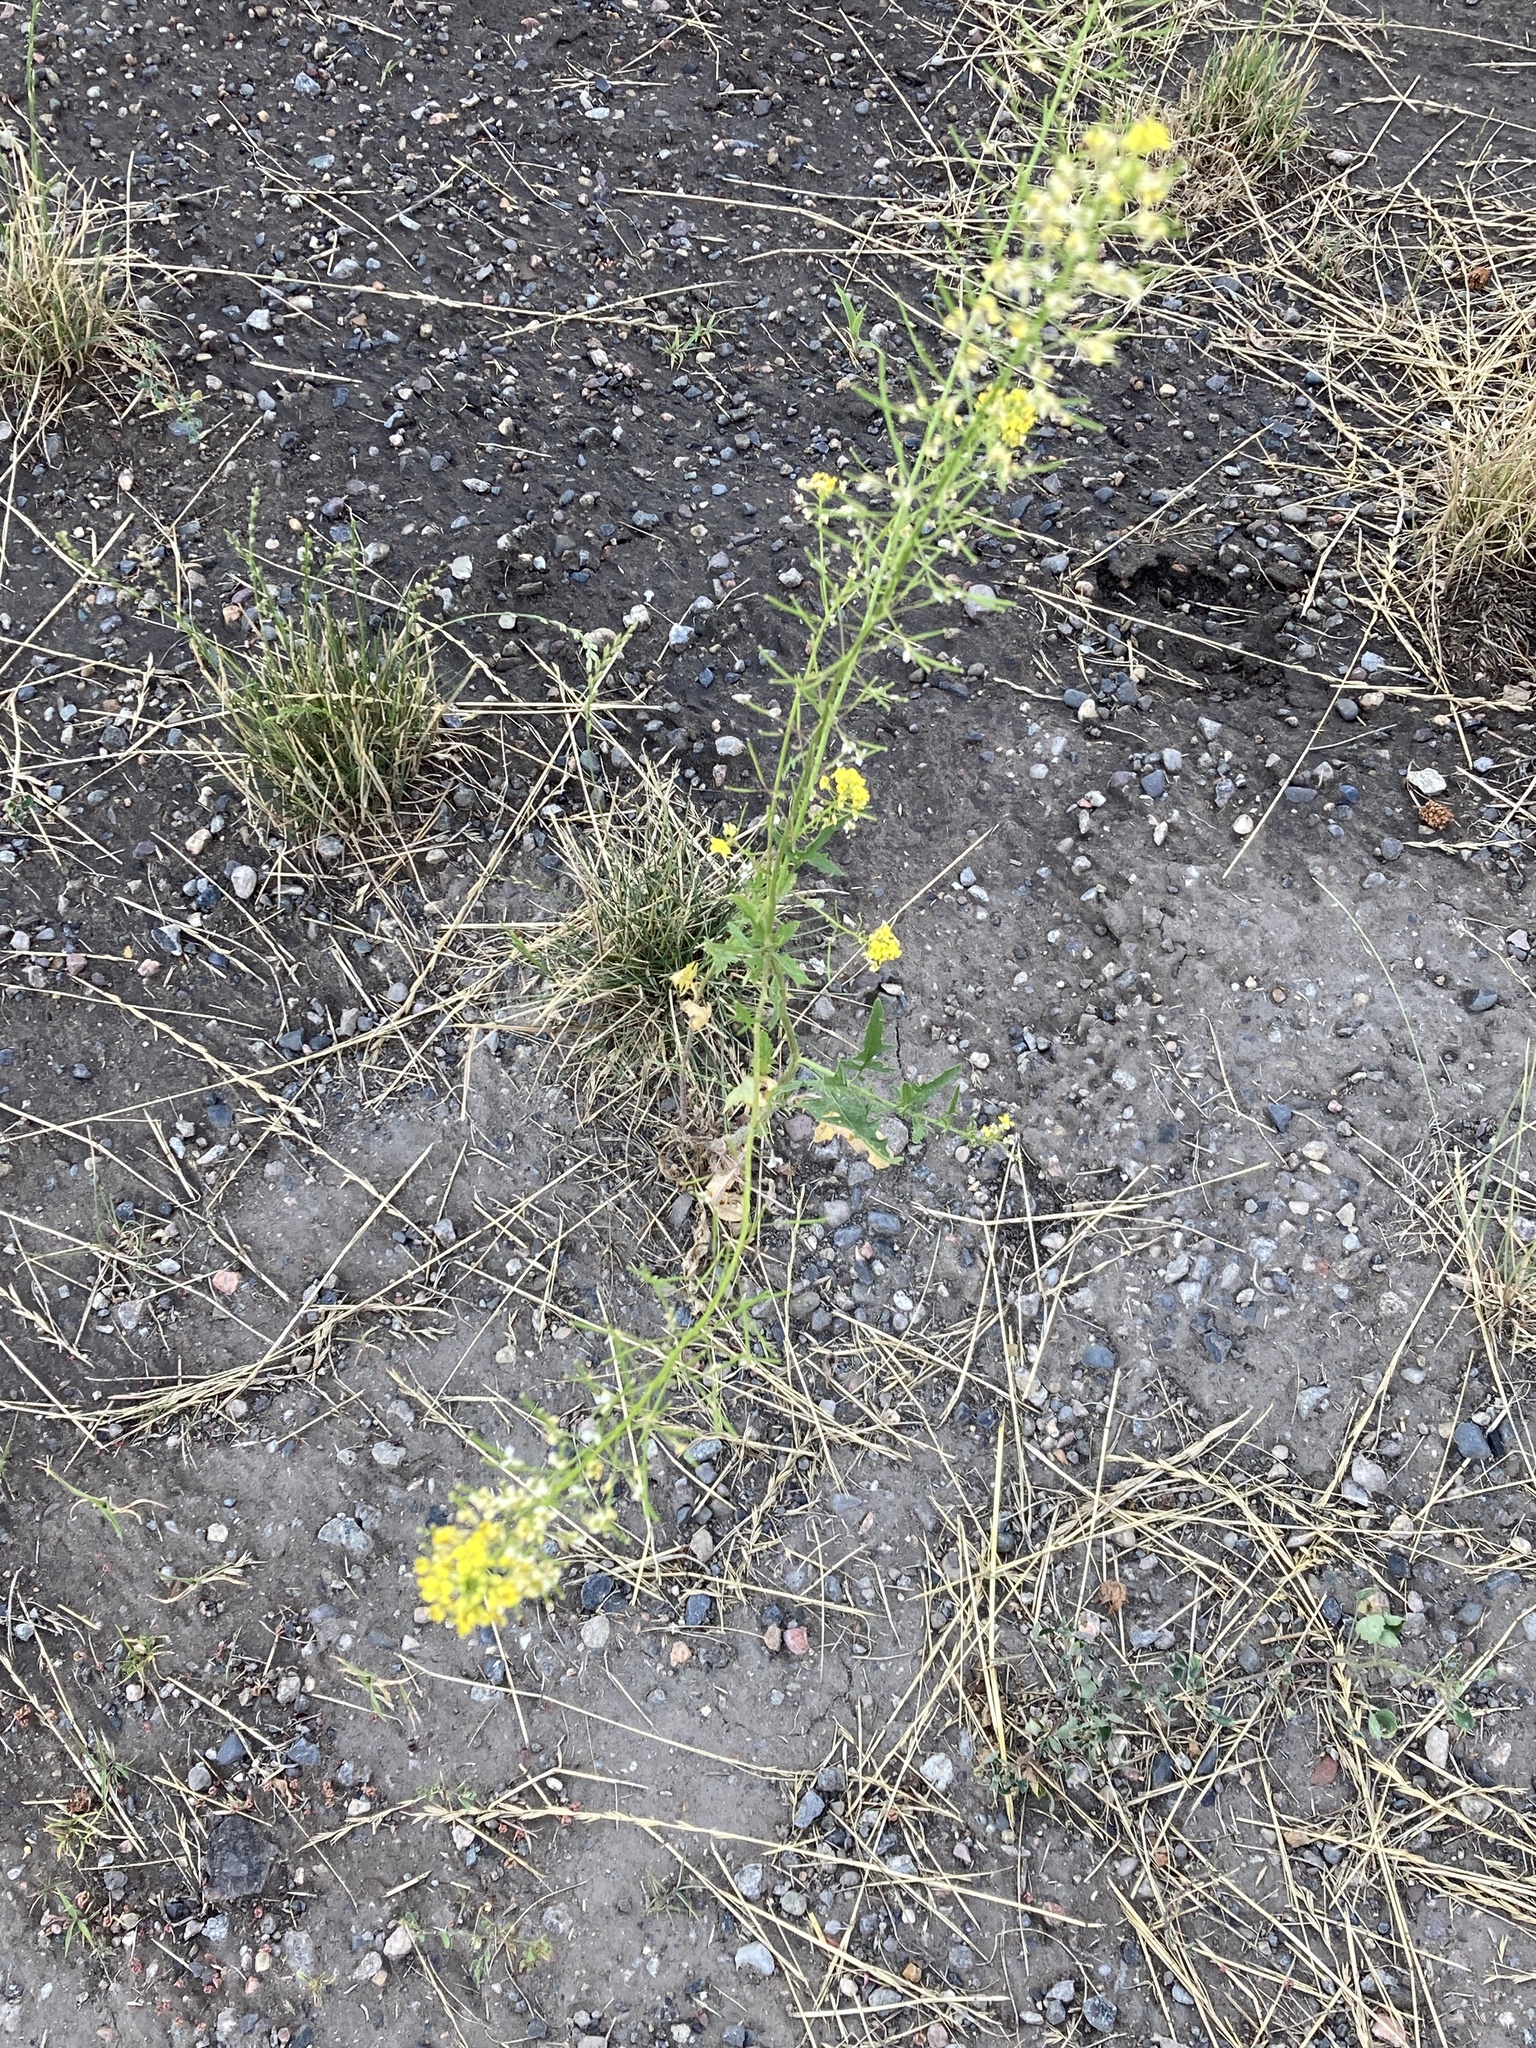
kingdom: Plantae
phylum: Tracheophyta
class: Magnoliopsida
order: Brassicales
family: Brassicaceae
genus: Sisymbrium
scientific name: Sisymbrium loeselii
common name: False london-rocket
